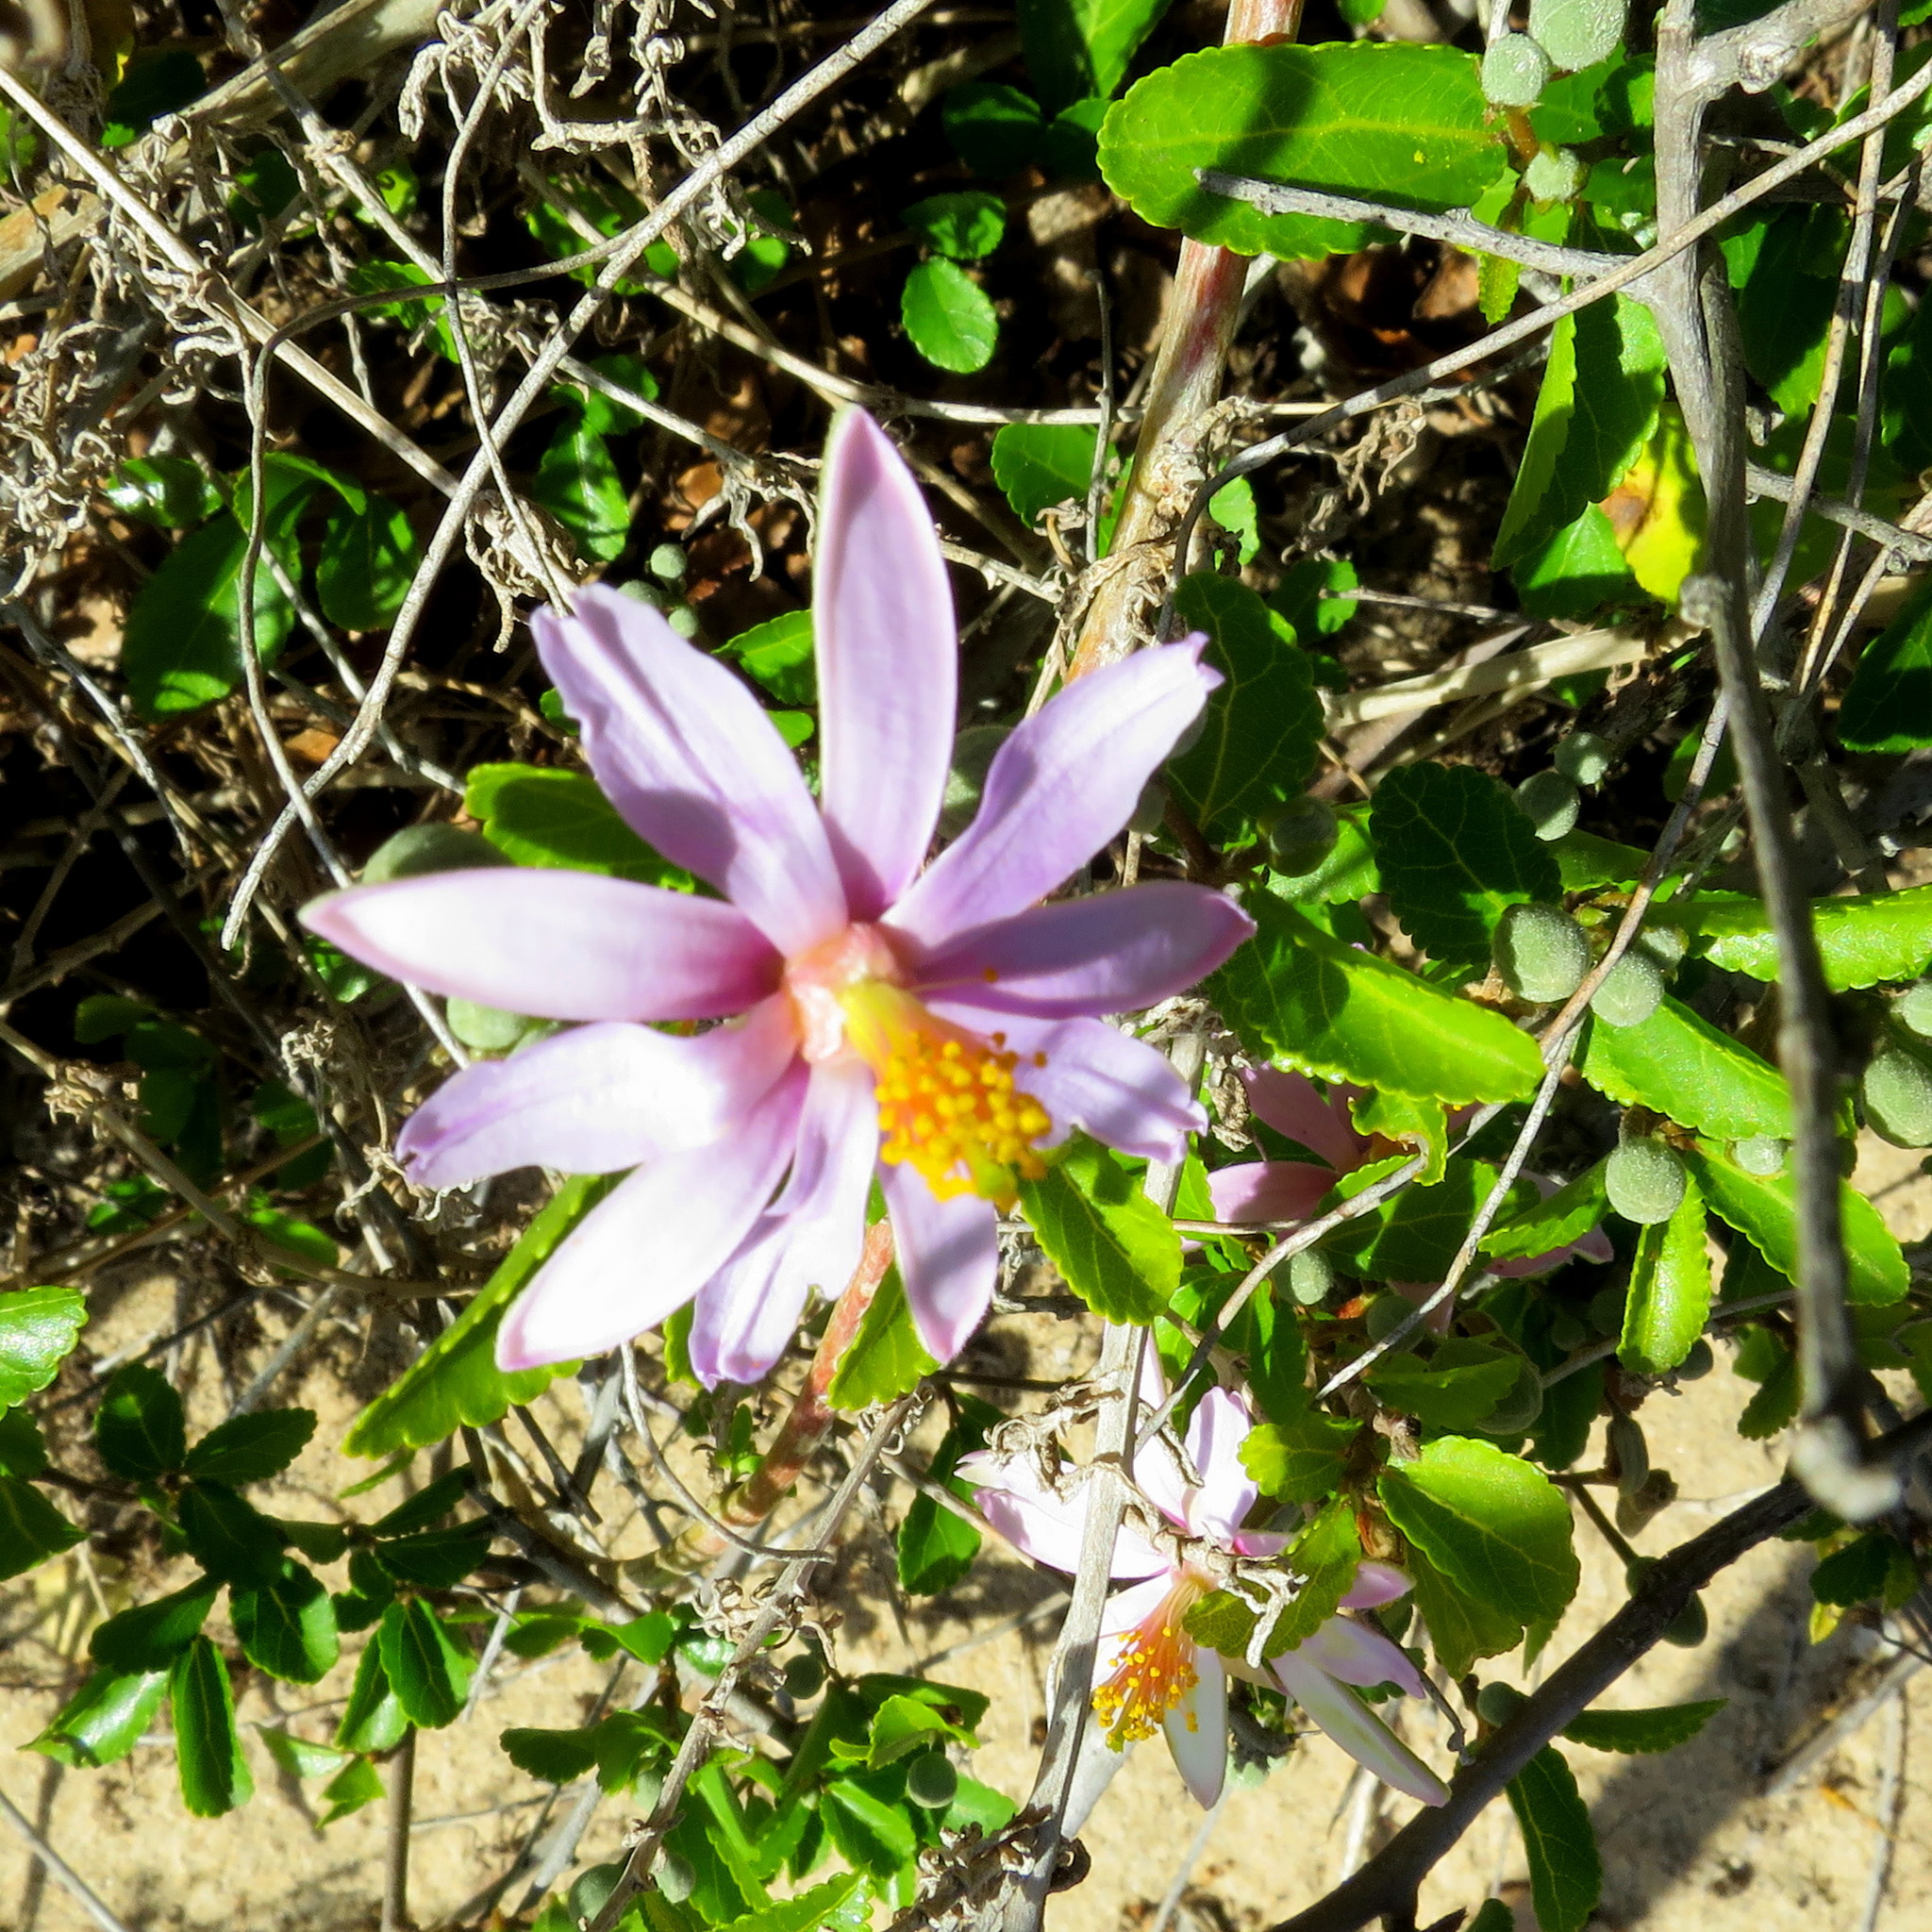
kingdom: Plantae
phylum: Tracheophyta
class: Magnoliopsida
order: Malvales
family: Malvaceae
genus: Grewia
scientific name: Grewia occidentalis
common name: Crossberry
